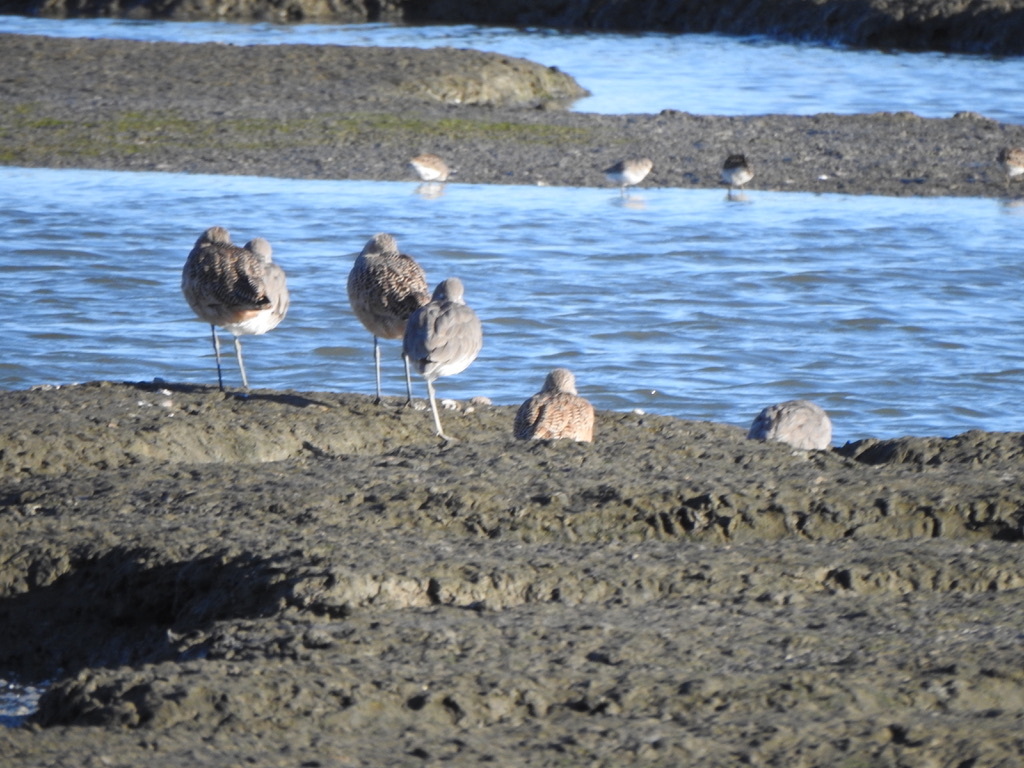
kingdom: Animalia
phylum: Chordata
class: Aves
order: Charadriiformes
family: Scolopacidae
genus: Limosa
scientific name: Limosa fedoa
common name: Marbled godwit
